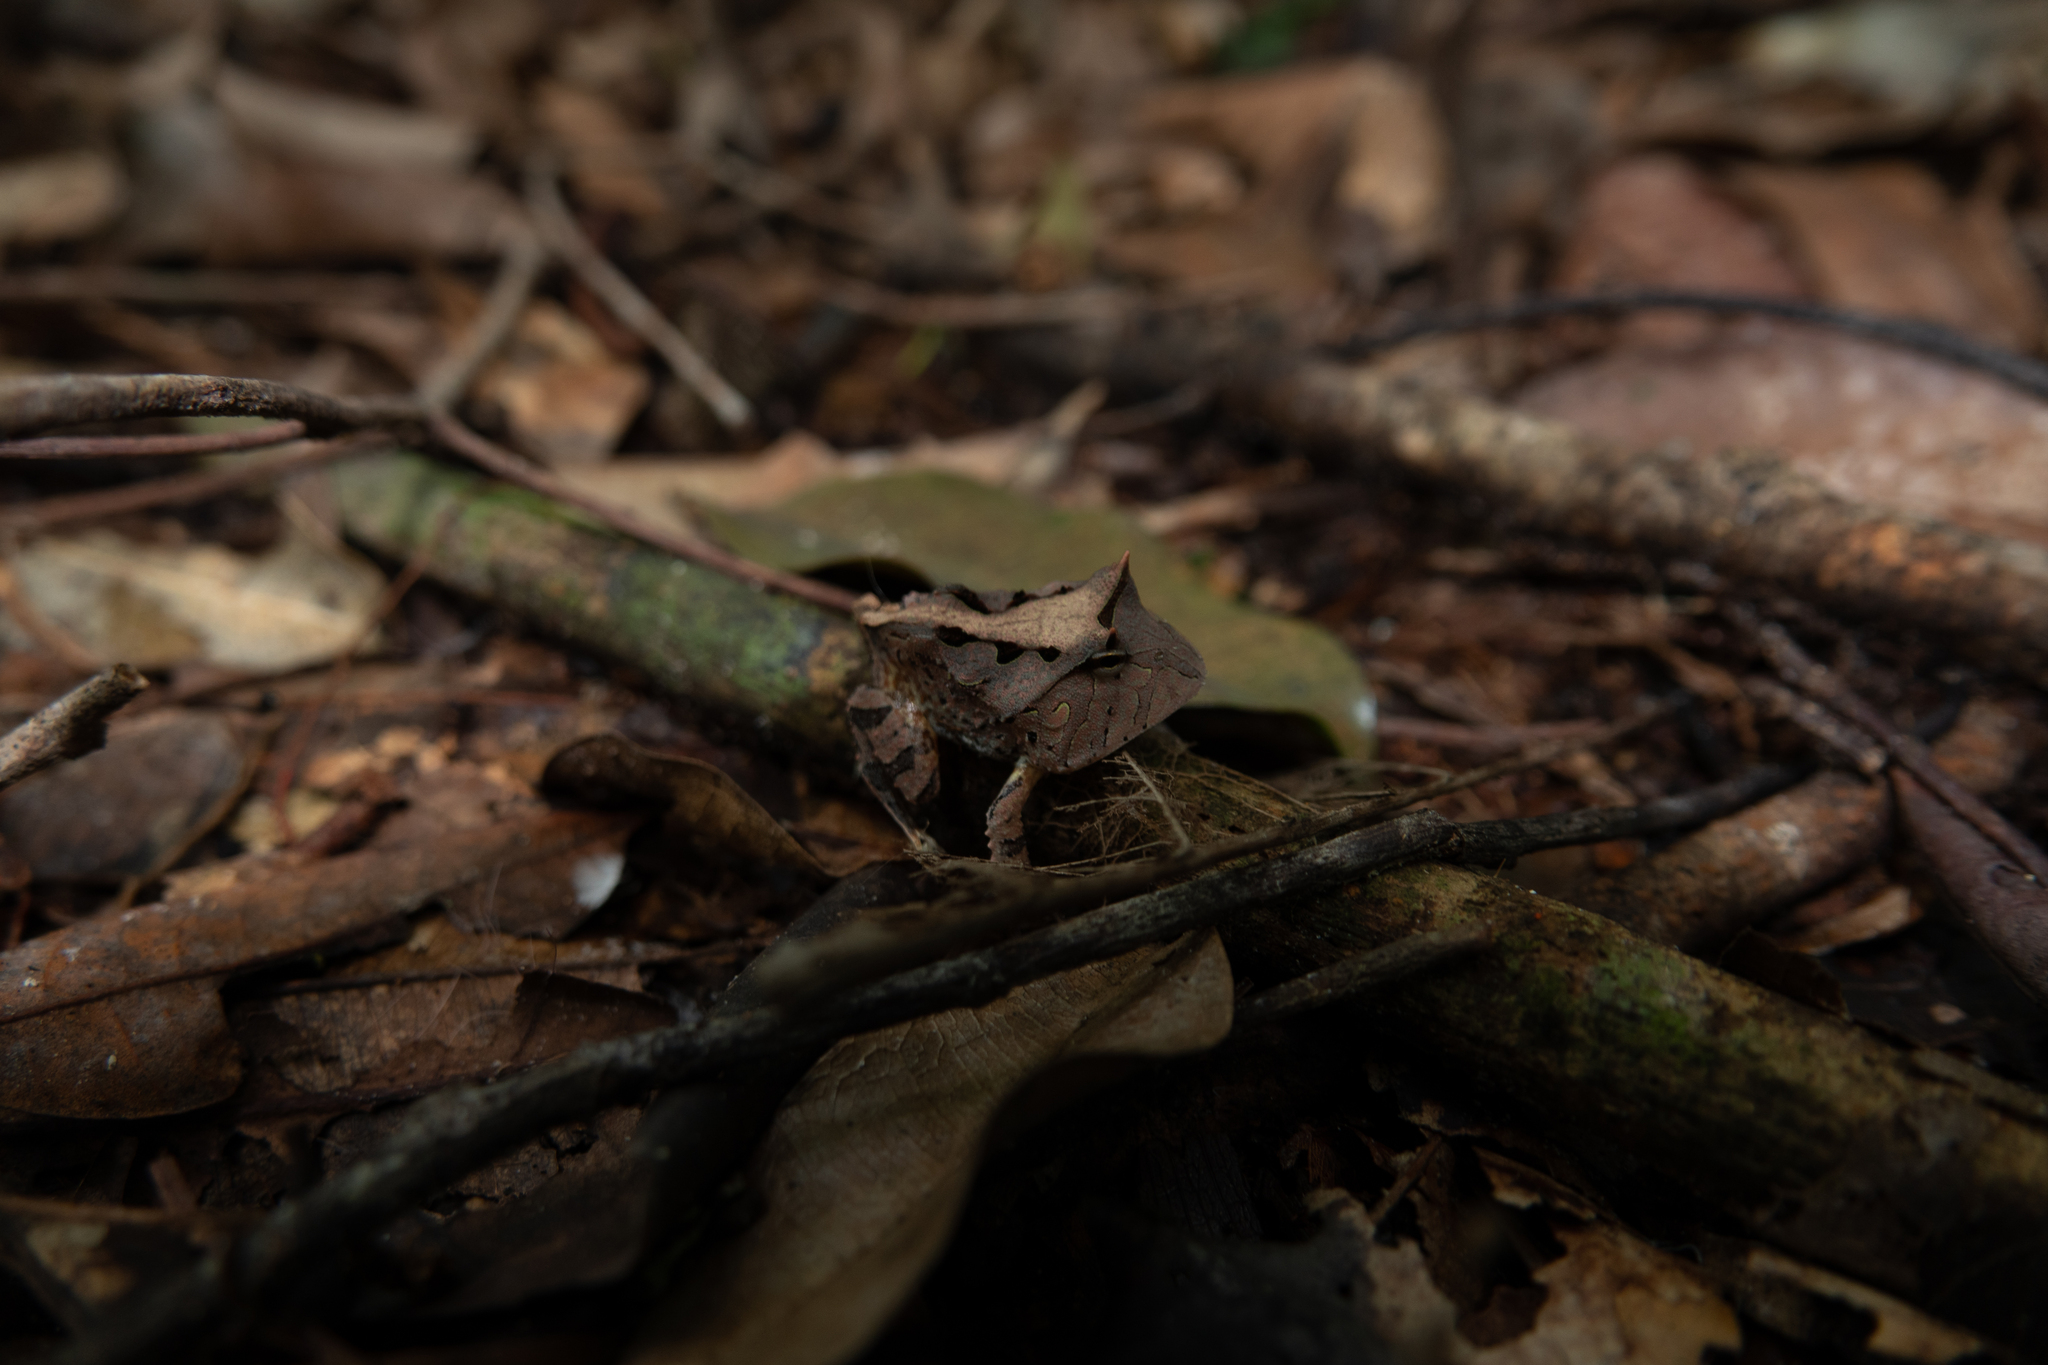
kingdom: Animalia
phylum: Chordata
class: Amphibia
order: Anura
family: Ceratophryidae
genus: Ceratophrys
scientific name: Ceratophrys cornuta
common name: Amazonian horned frog
